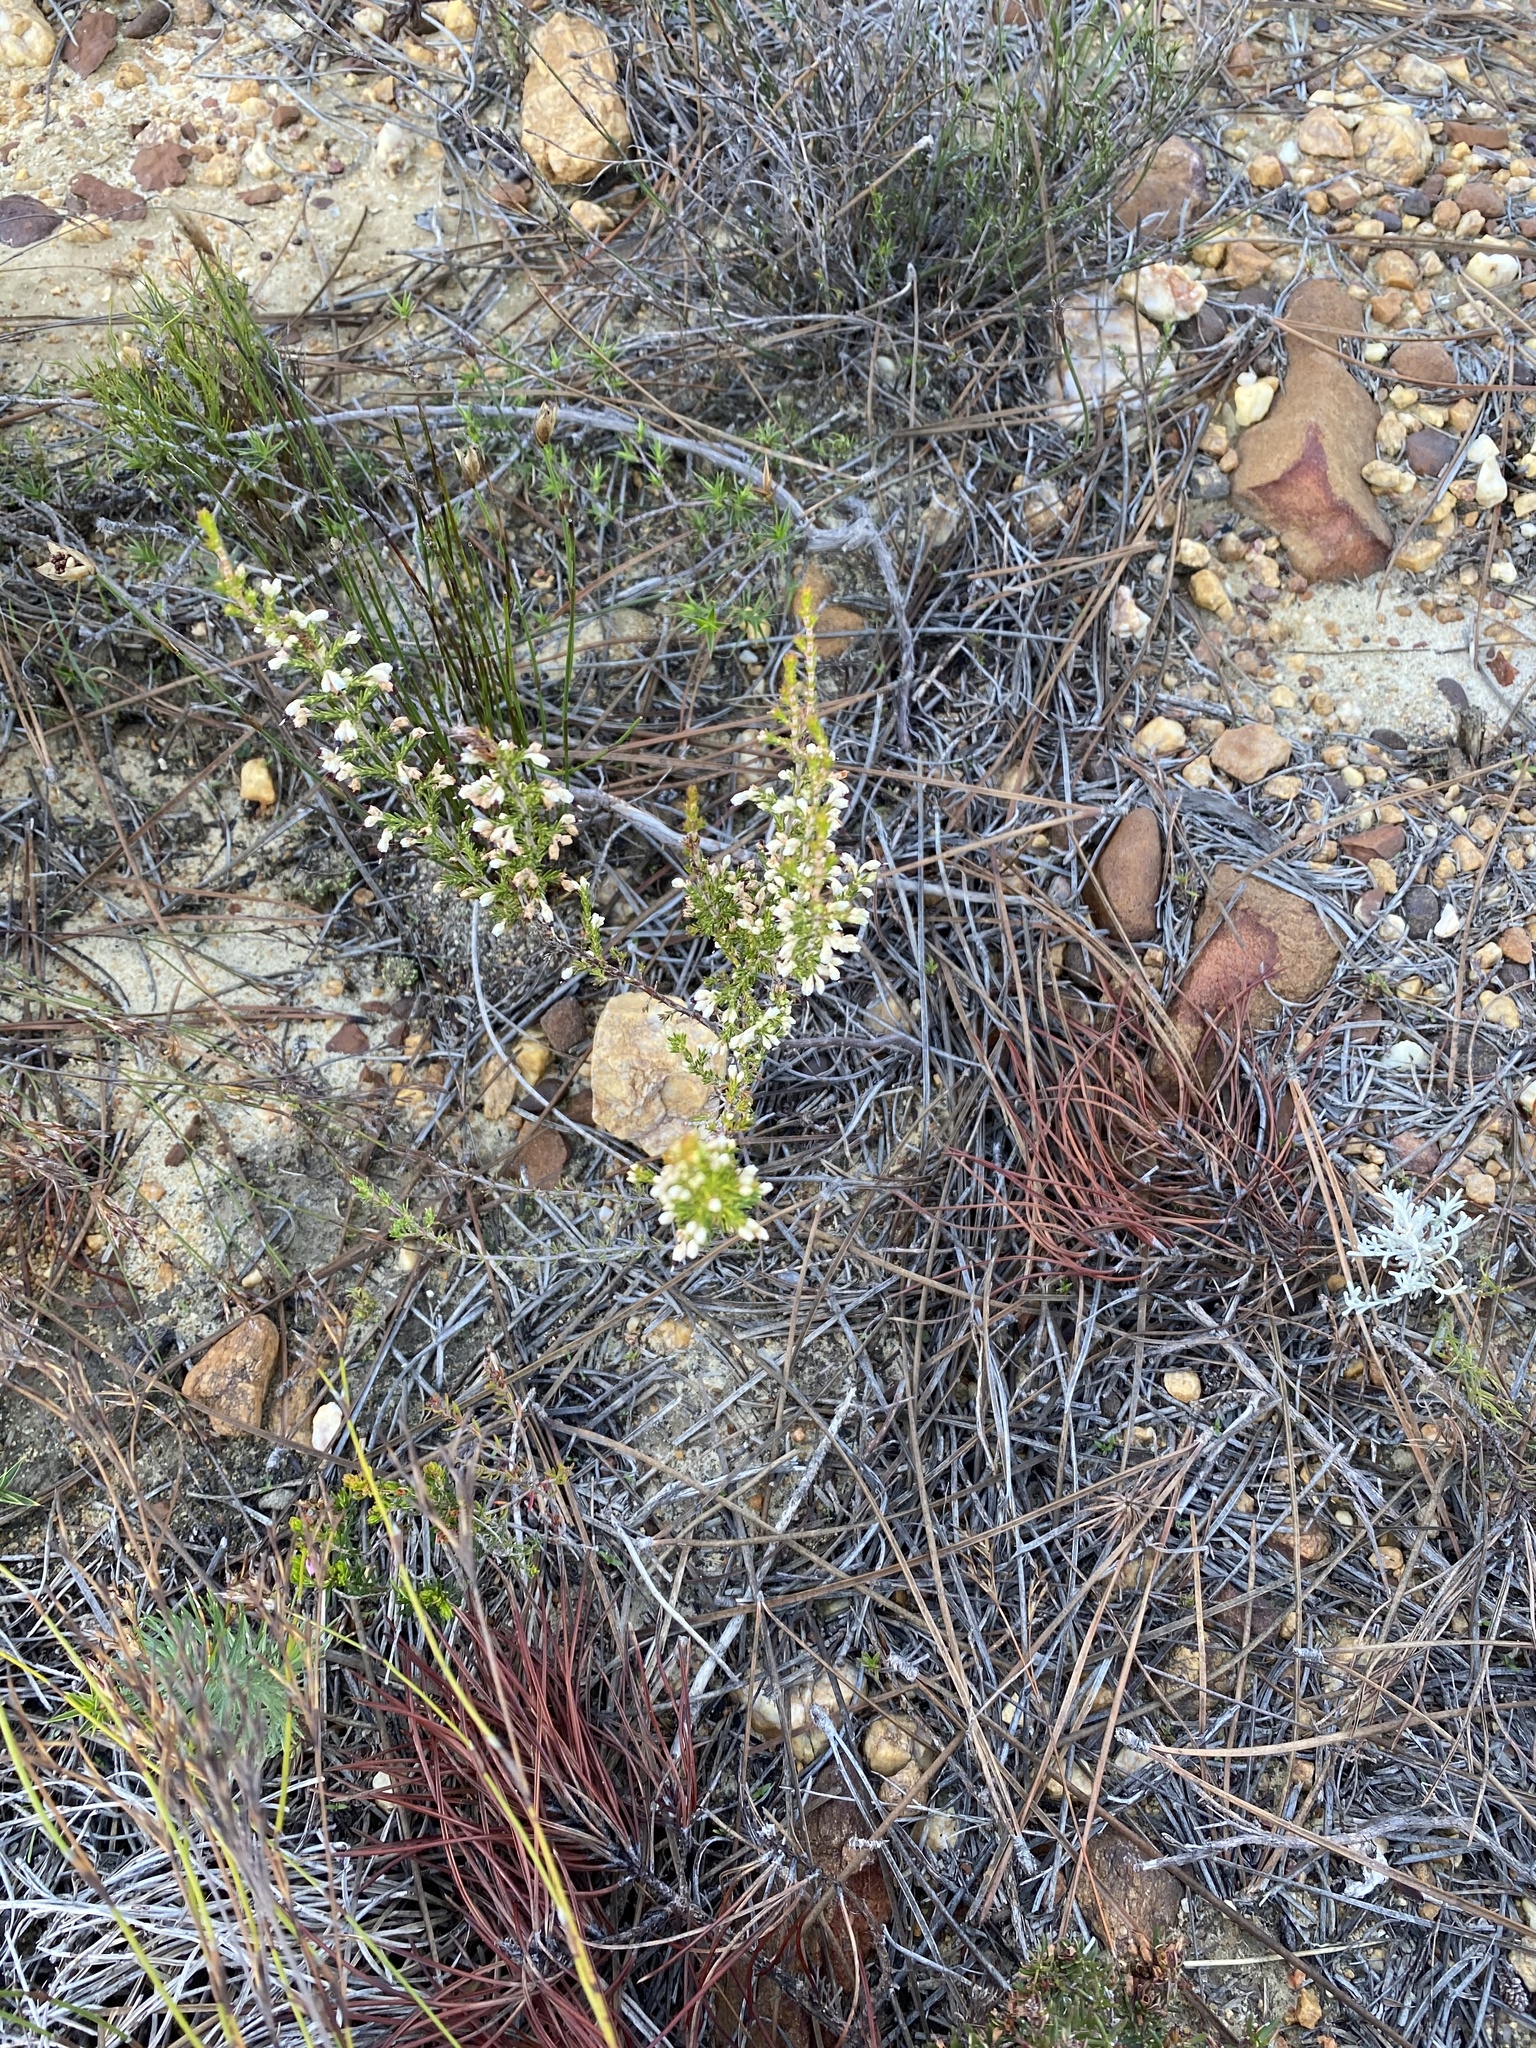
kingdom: Plantae
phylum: Tracheophyta
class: Magnoliopsida
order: Ericales
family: Ericaceae
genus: Erica
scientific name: Erica imbricata
